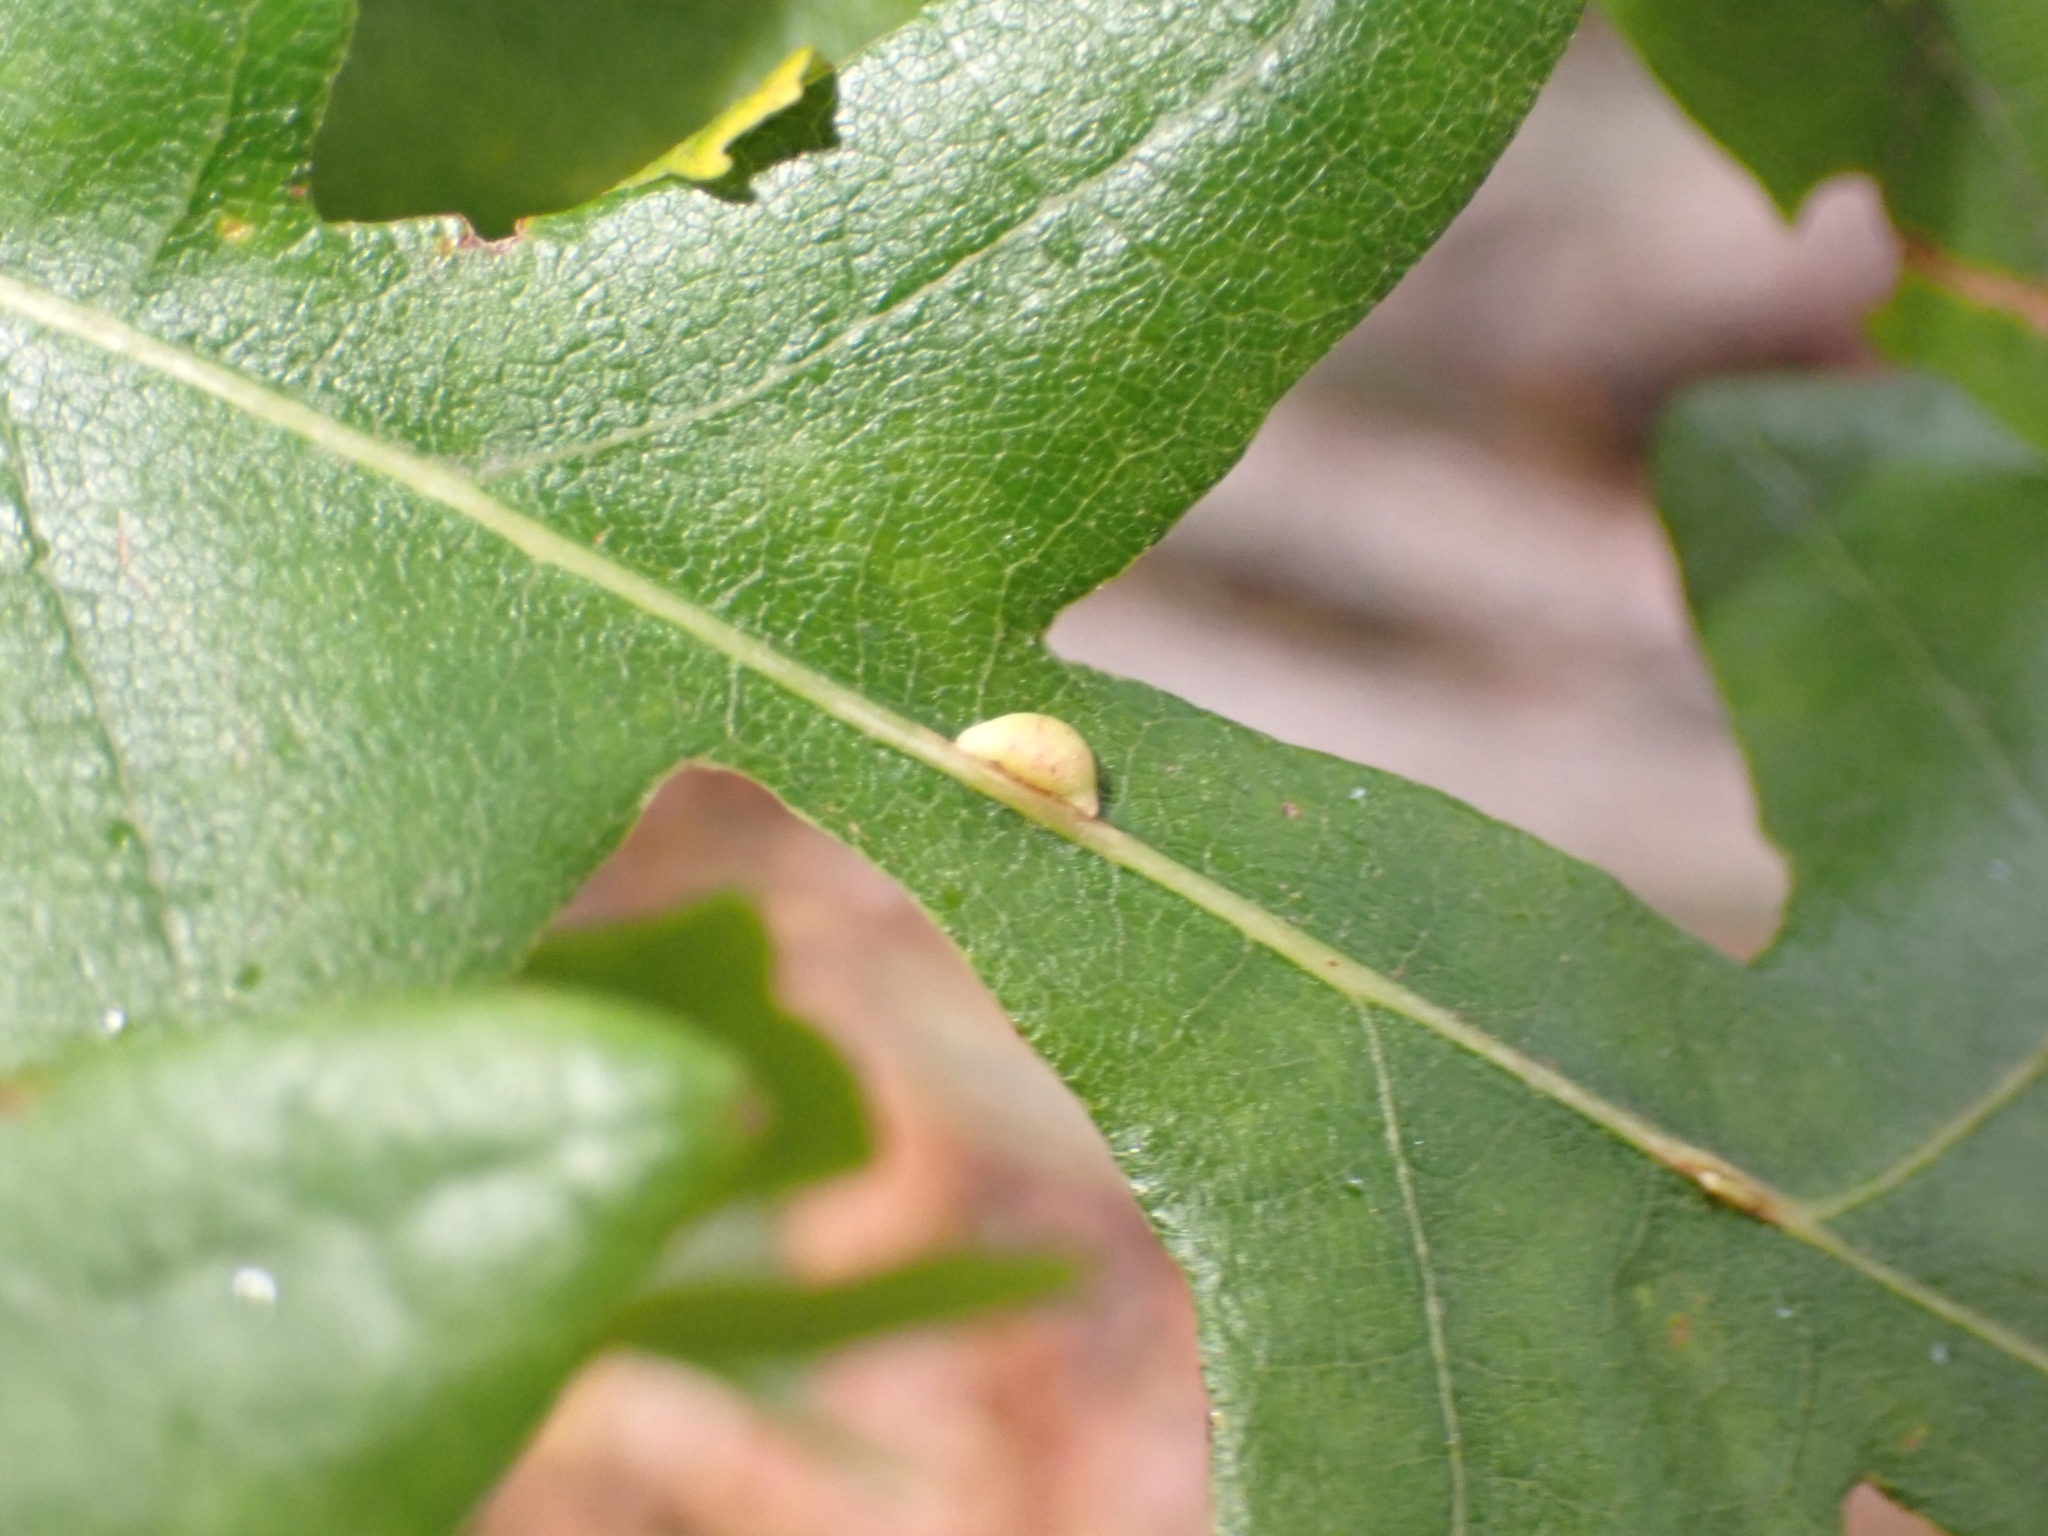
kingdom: Animalia
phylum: Arthropoda
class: Insecta
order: Hymenoptera
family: Cynipidae
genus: Neuroterus
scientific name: Neuroterus saliens
